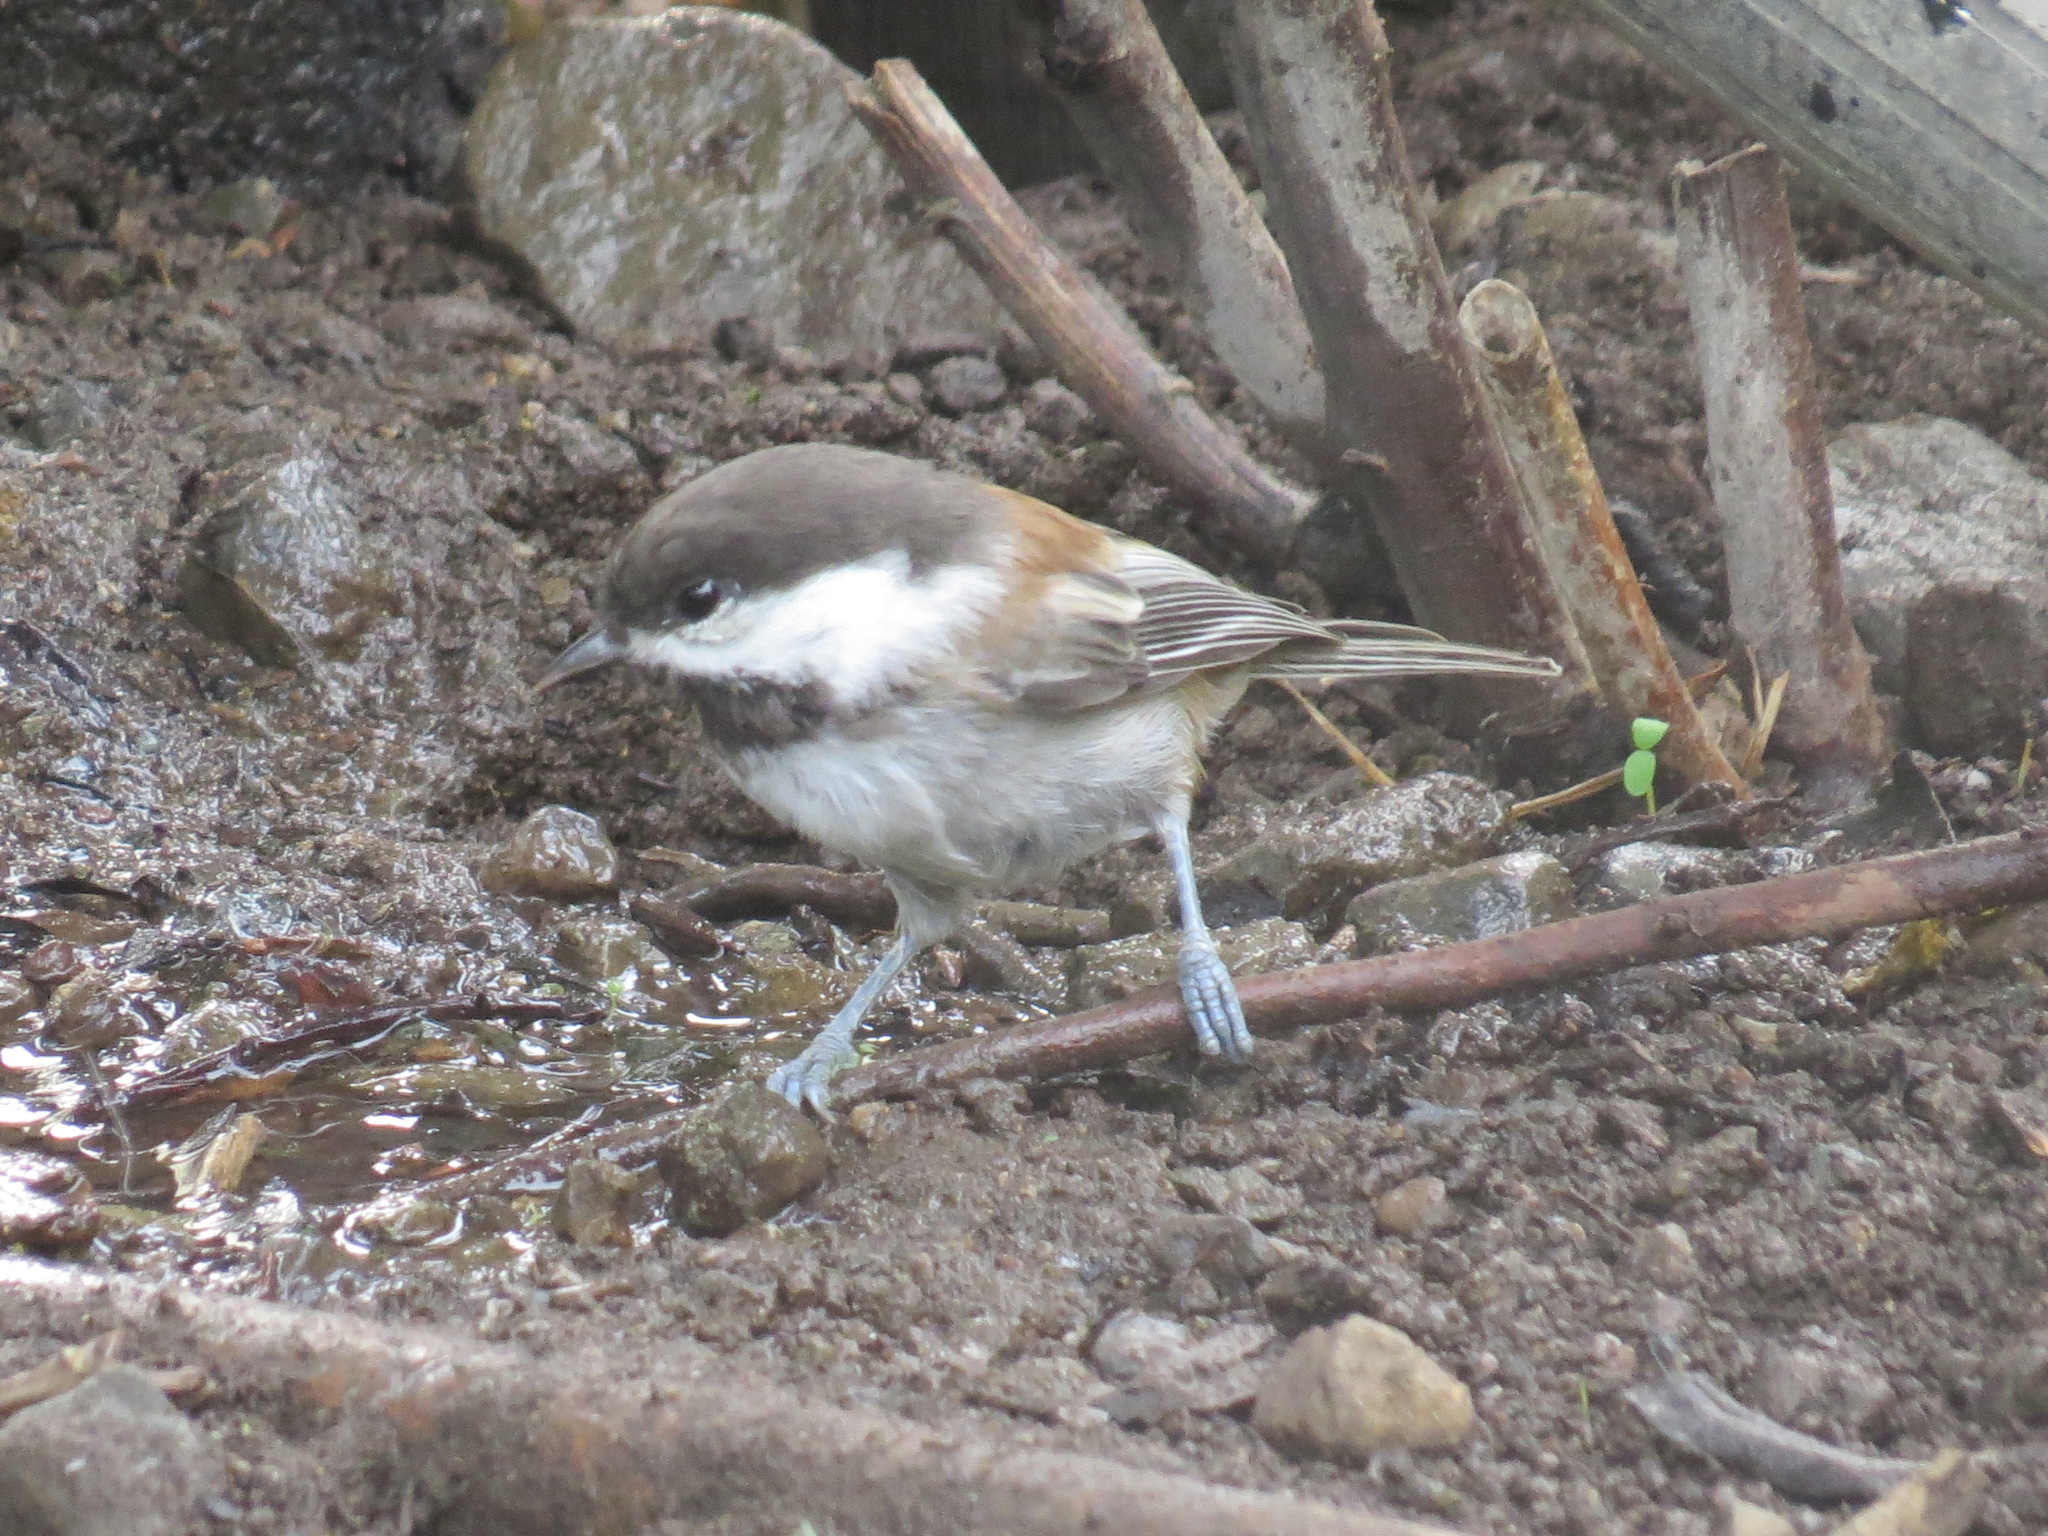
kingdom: Animalia
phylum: Chordata
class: Aves
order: Passeriformes
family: Paridae
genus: Poecile
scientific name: Poecile rufescens
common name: Chestnut-backed chickadee
